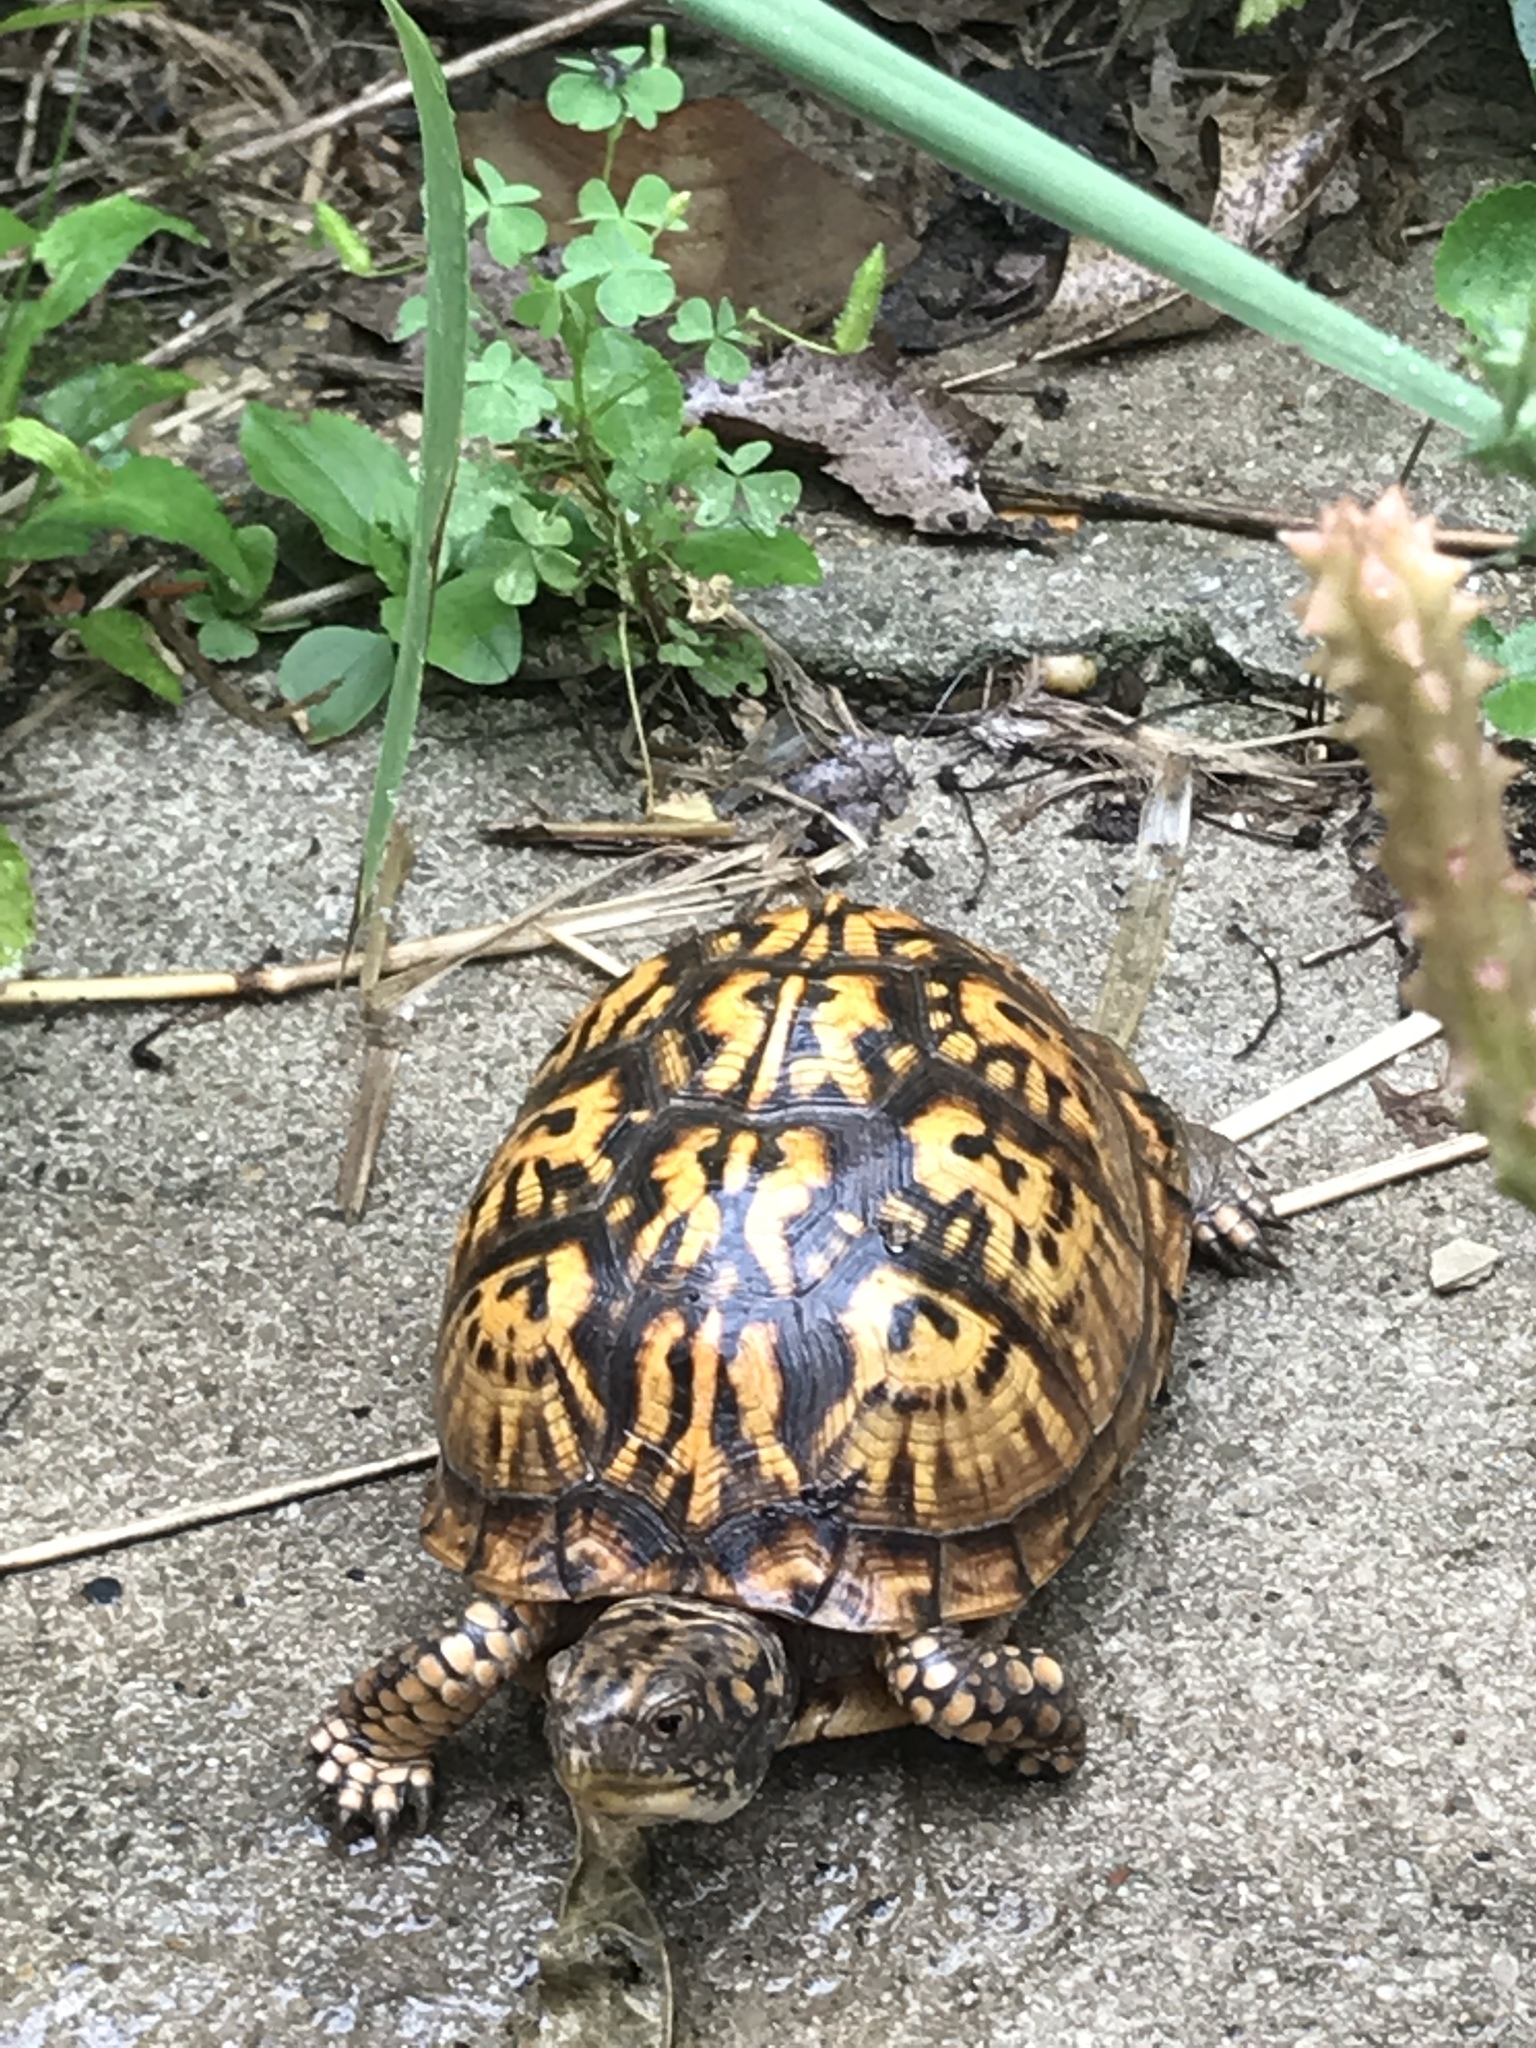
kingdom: Animalia
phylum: Chordata
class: Testudines
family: Emydidae
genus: Terrapene
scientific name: Terrapene carolina
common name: Common box turtle
